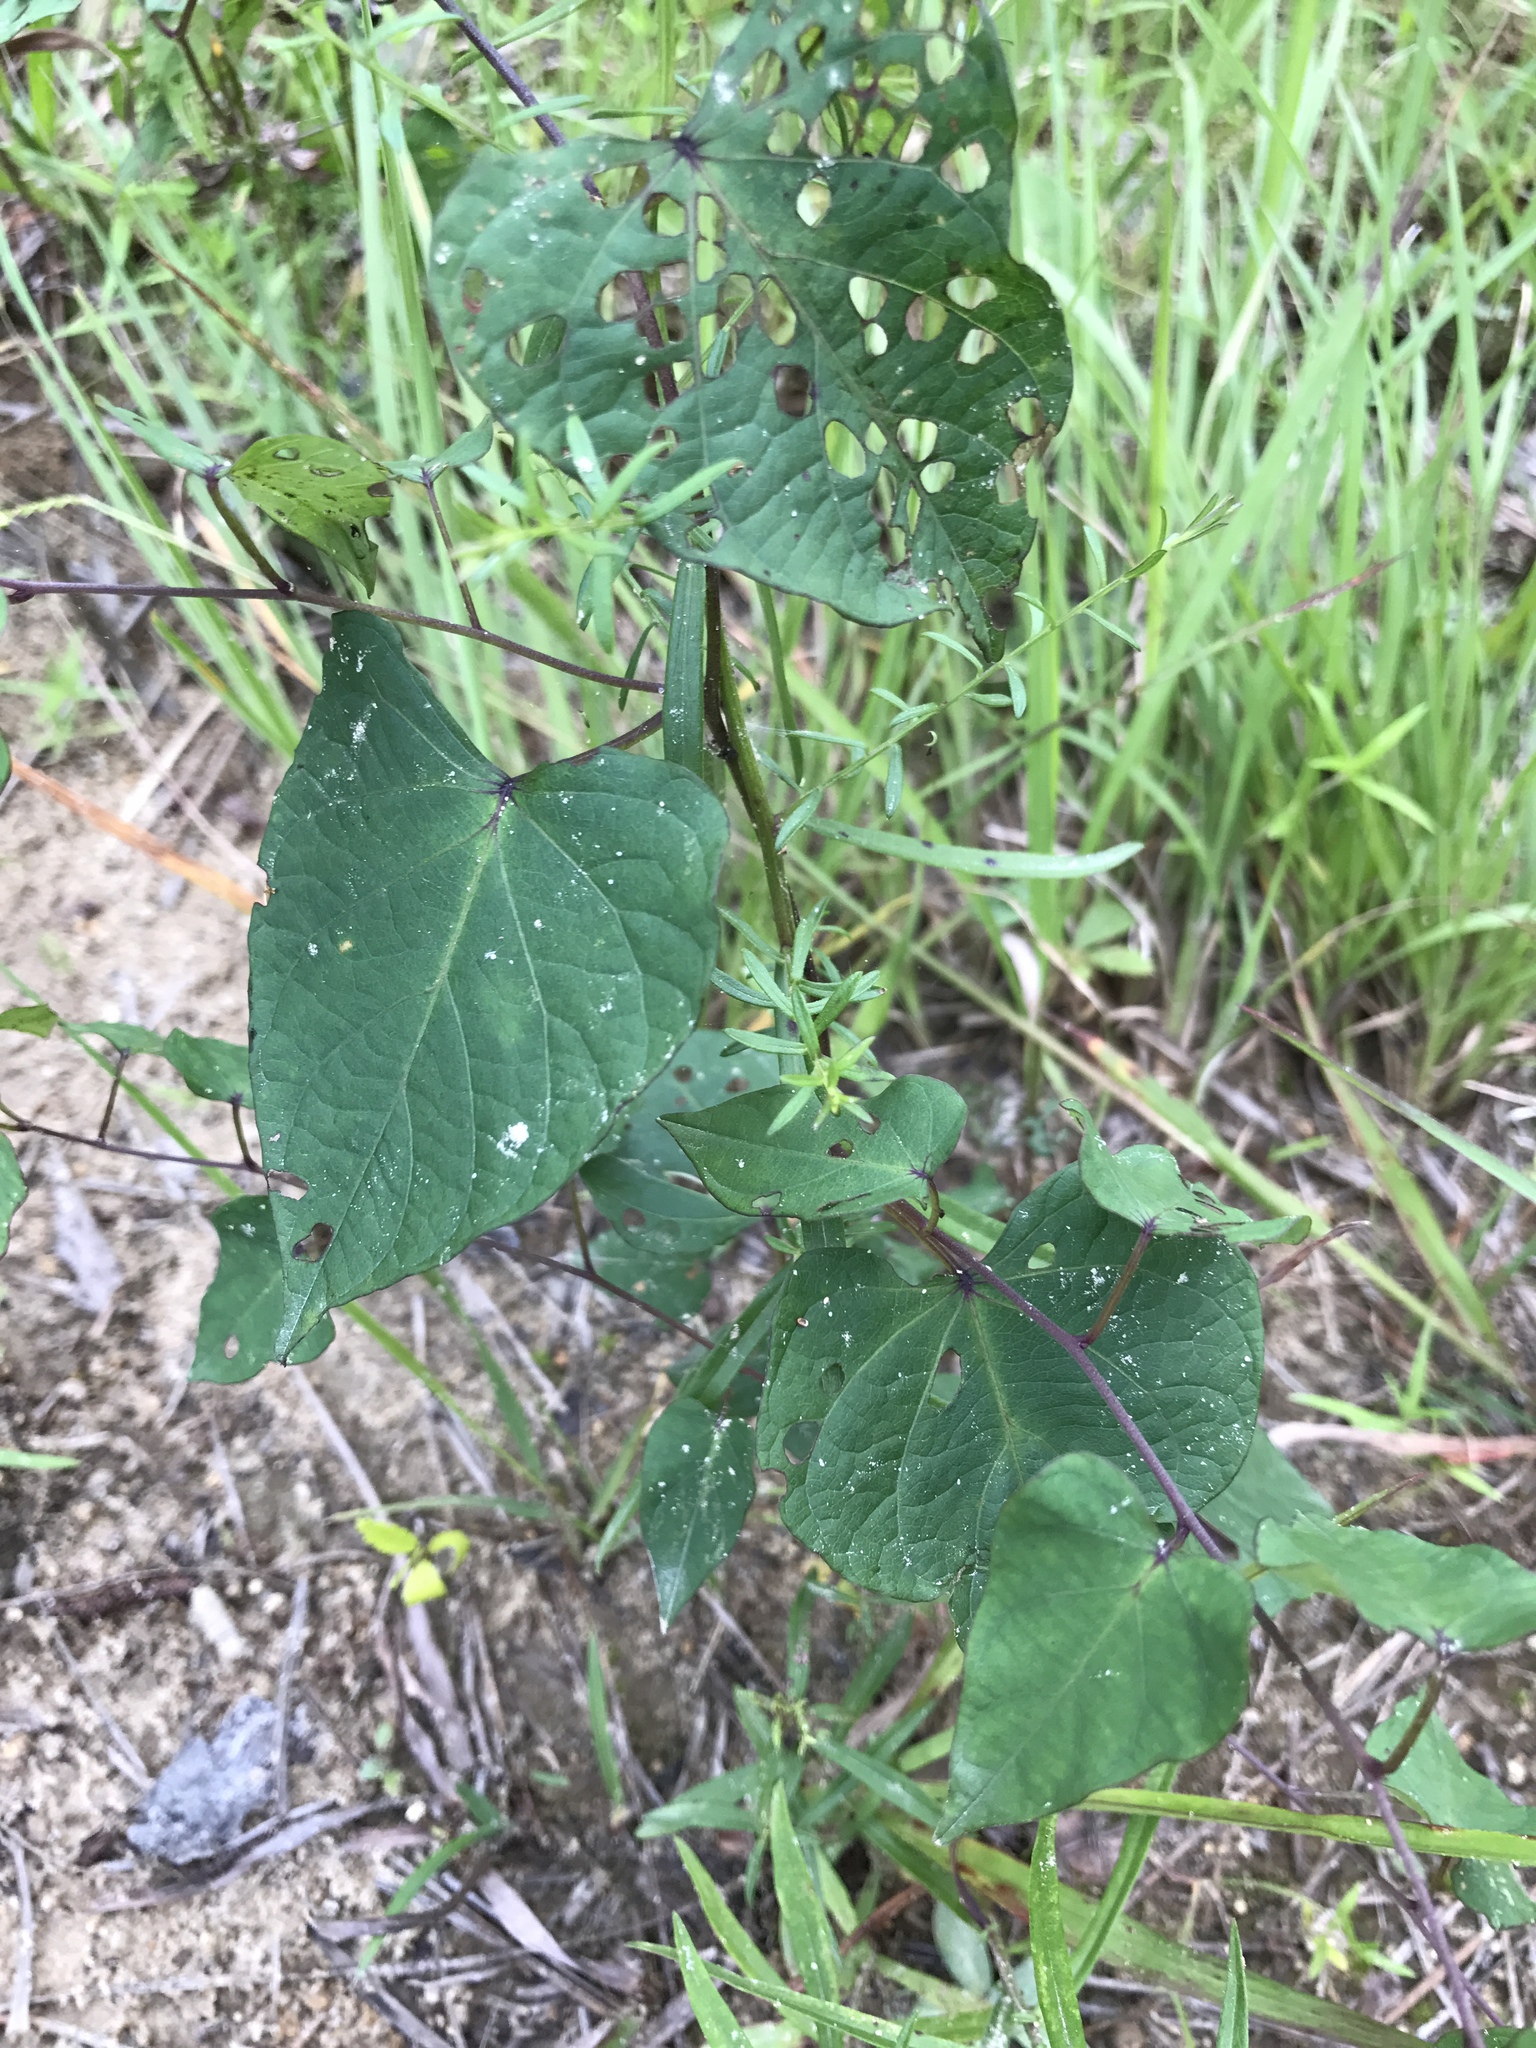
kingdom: Plantae
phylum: Tracheophyta
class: Magnoliopsida
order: Solanales
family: Convolvulaceae
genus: Ipomoea
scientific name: Ipomoea pandurata
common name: Man-of-the-earth
